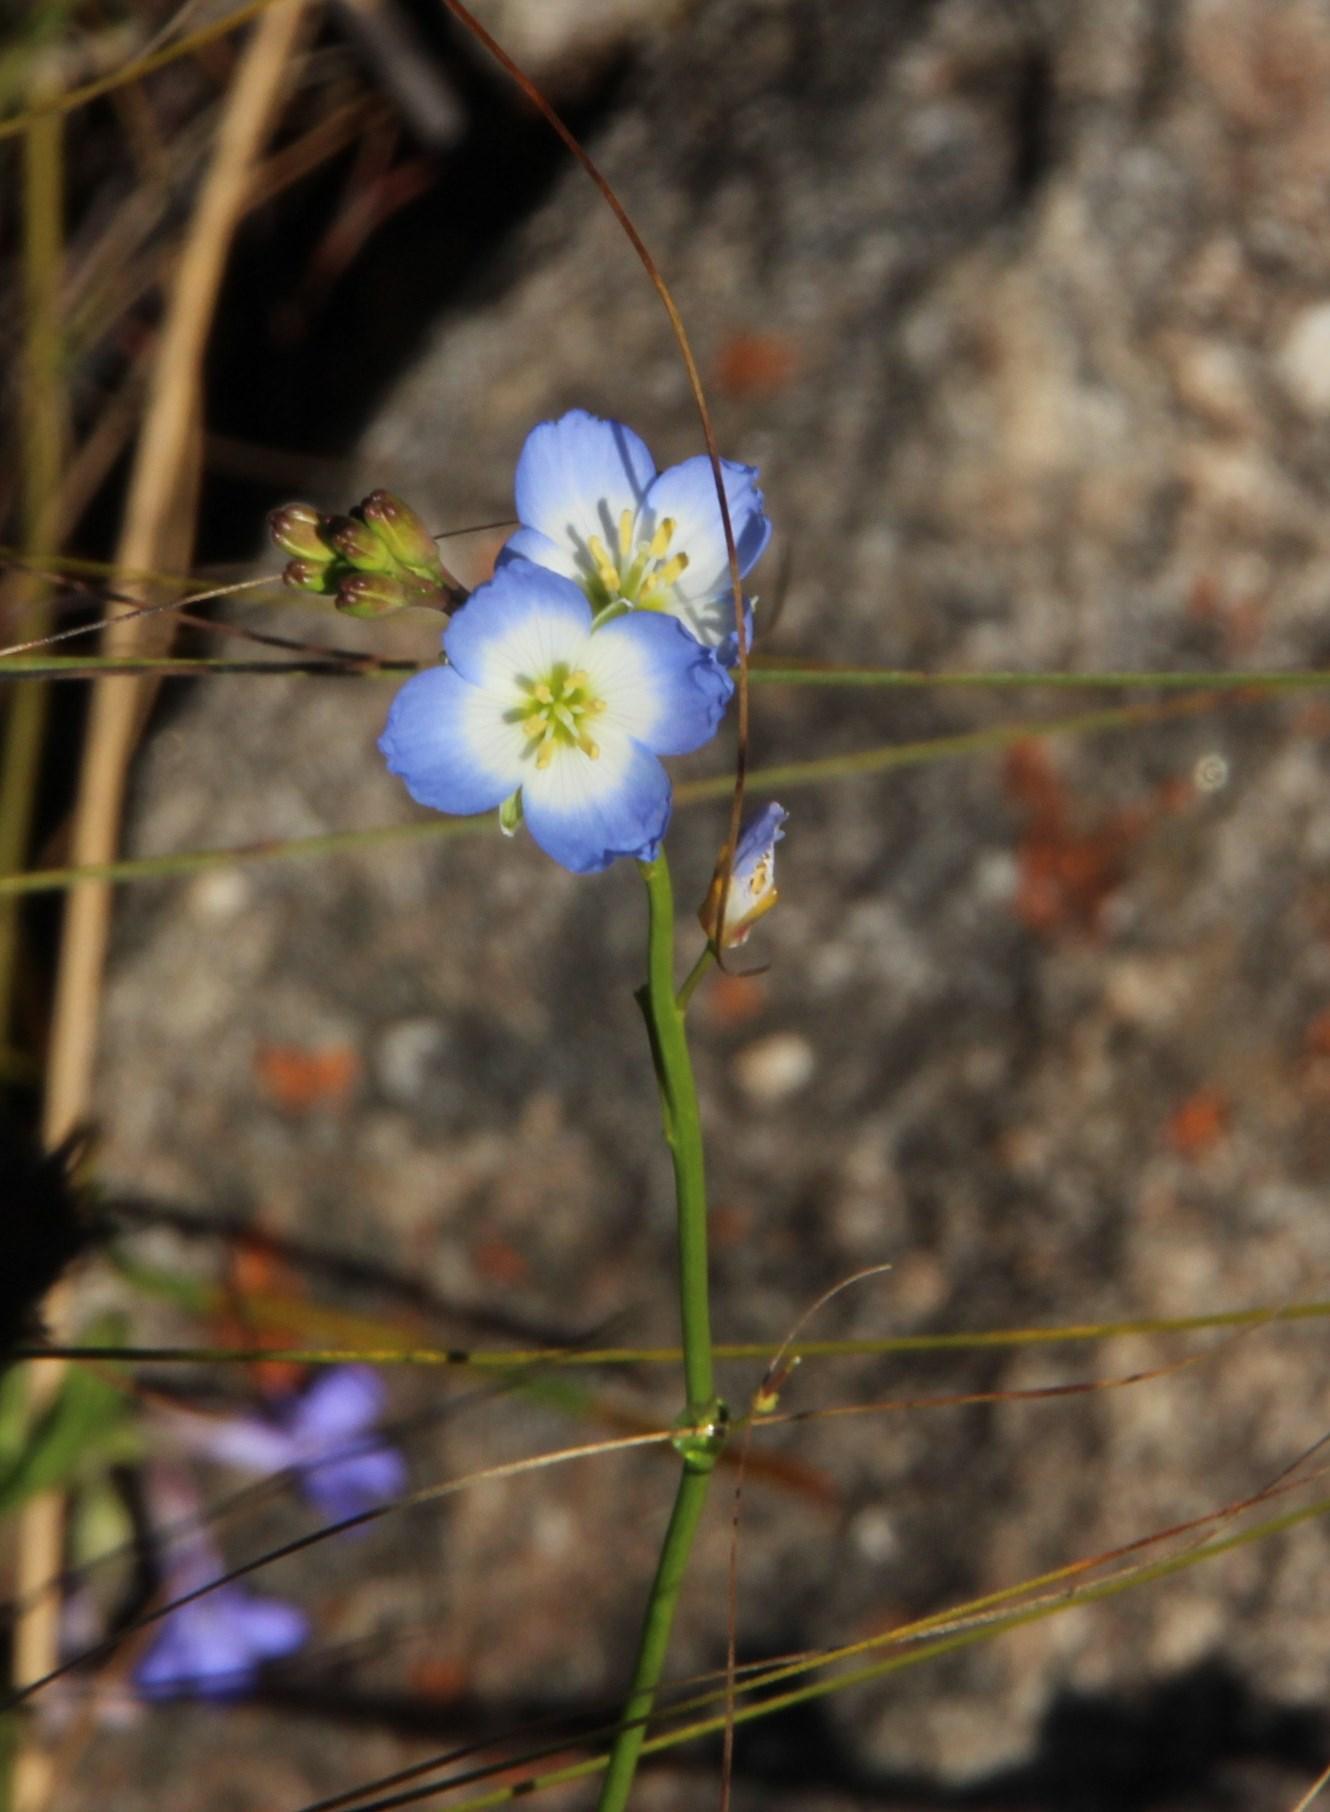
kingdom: Plantae
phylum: Tracheophyta
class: Magnoliopsida
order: Brassicales
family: Brassicaceae
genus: Heliophila
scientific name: Heliophila coronopifolia
